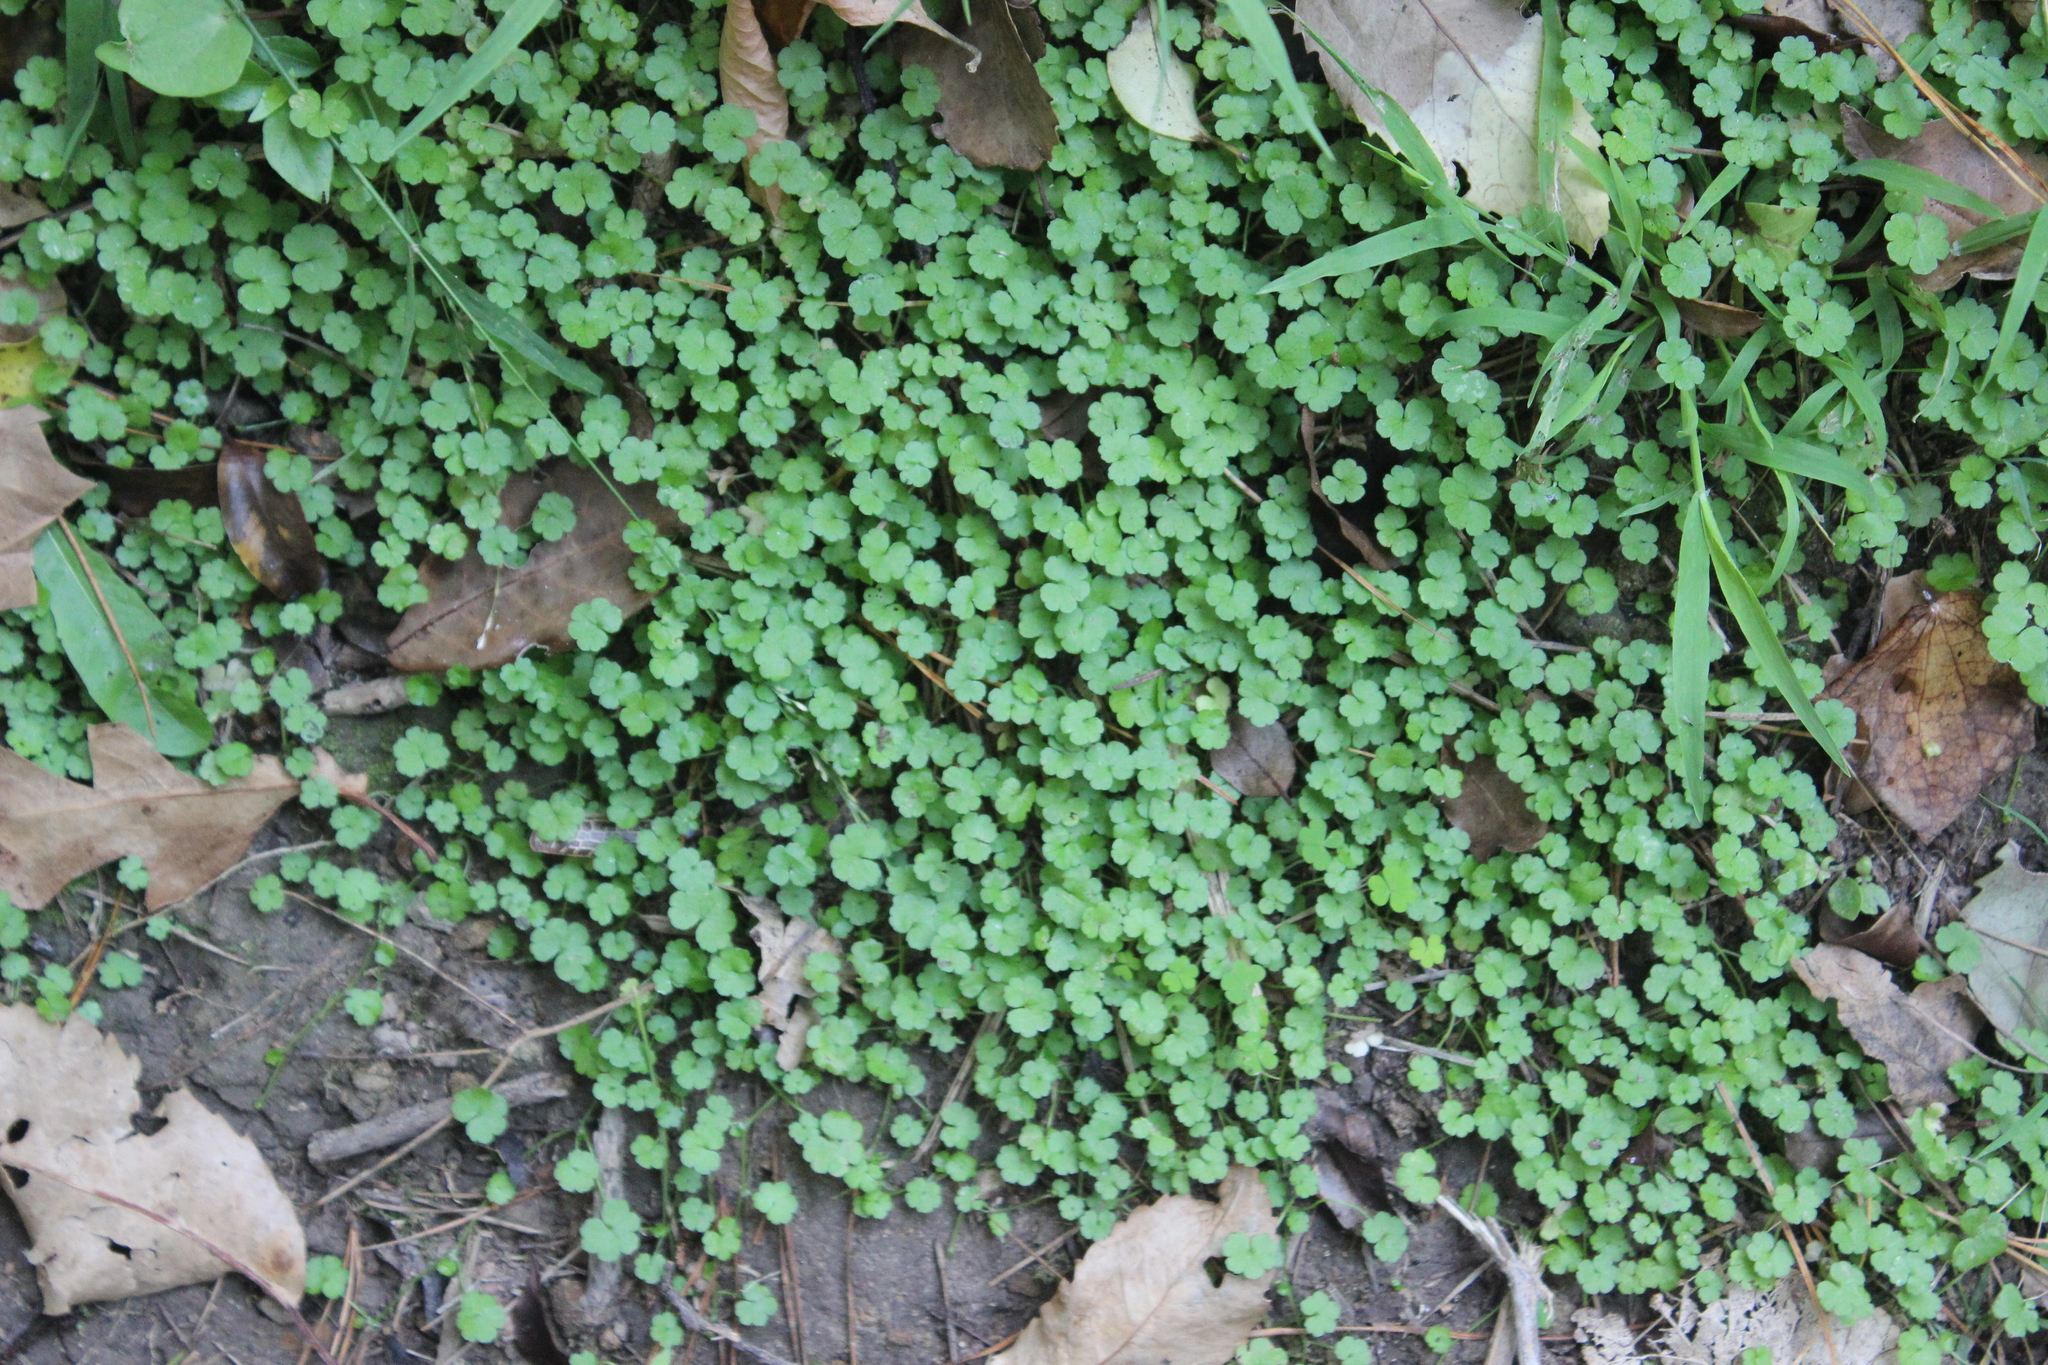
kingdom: Plantae
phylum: Tracheophyta
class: Magnoliopsida
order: Apiales
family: Araliaceae
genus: Hydrocotyle
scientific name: Hydrocotyle heteromeria
